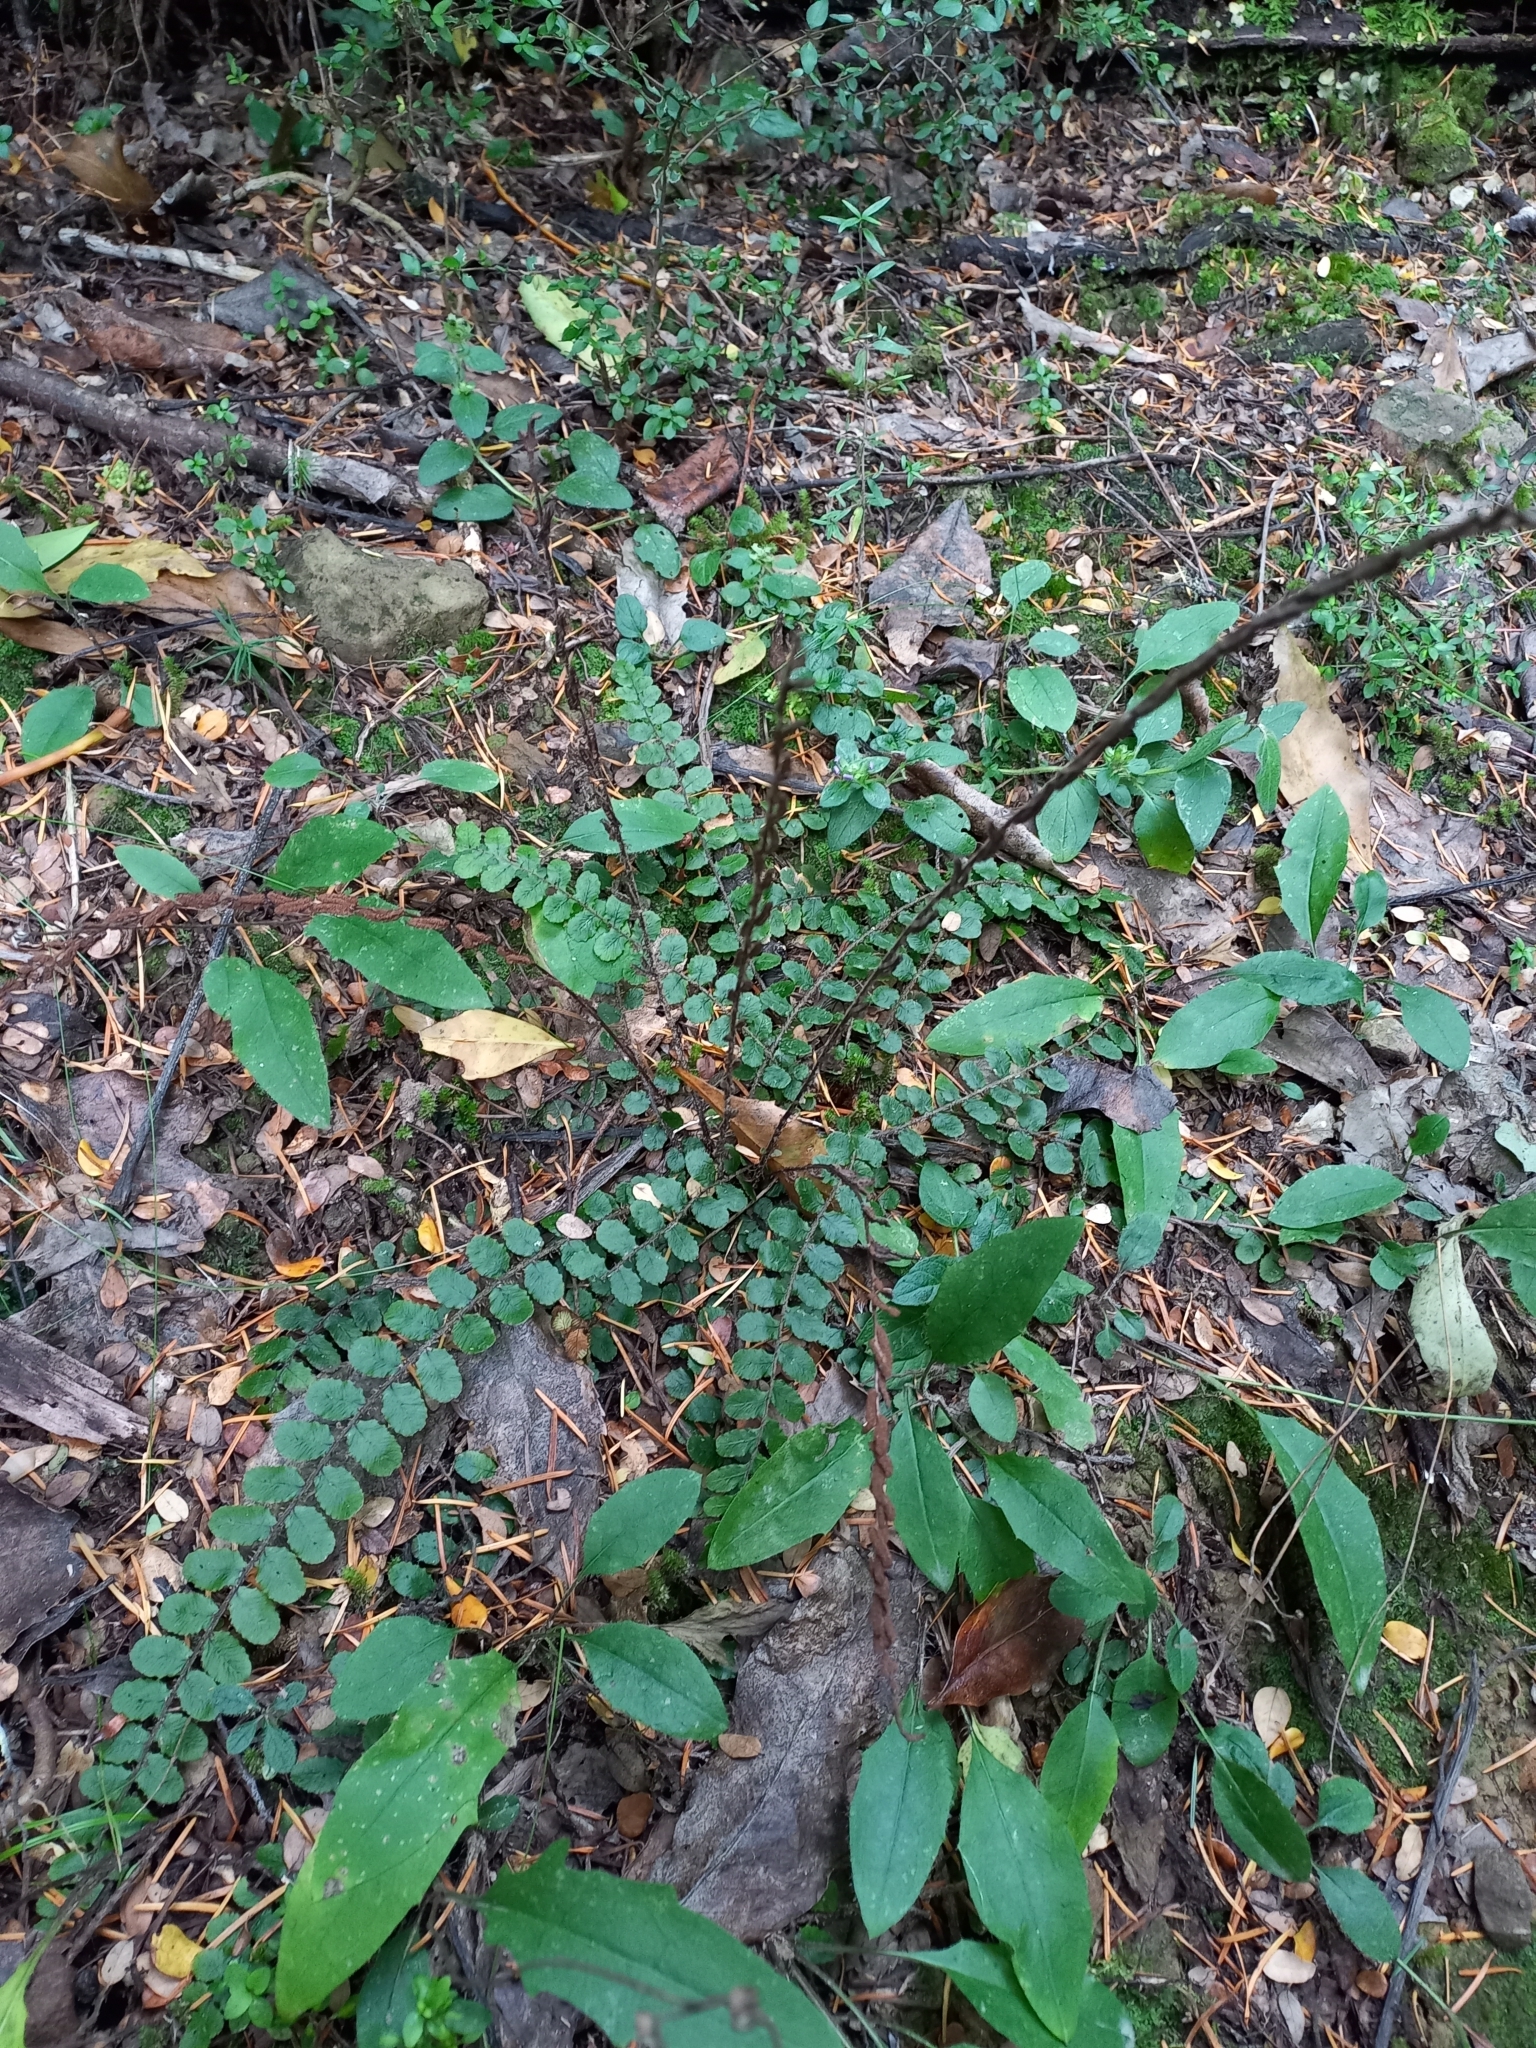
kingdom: Plantae
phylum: Tracheophyta
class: Polypodiopsida
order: Polypodiales
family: Blechnaceae
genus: Cranfillia
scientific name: Cranfillia fluviatilis
